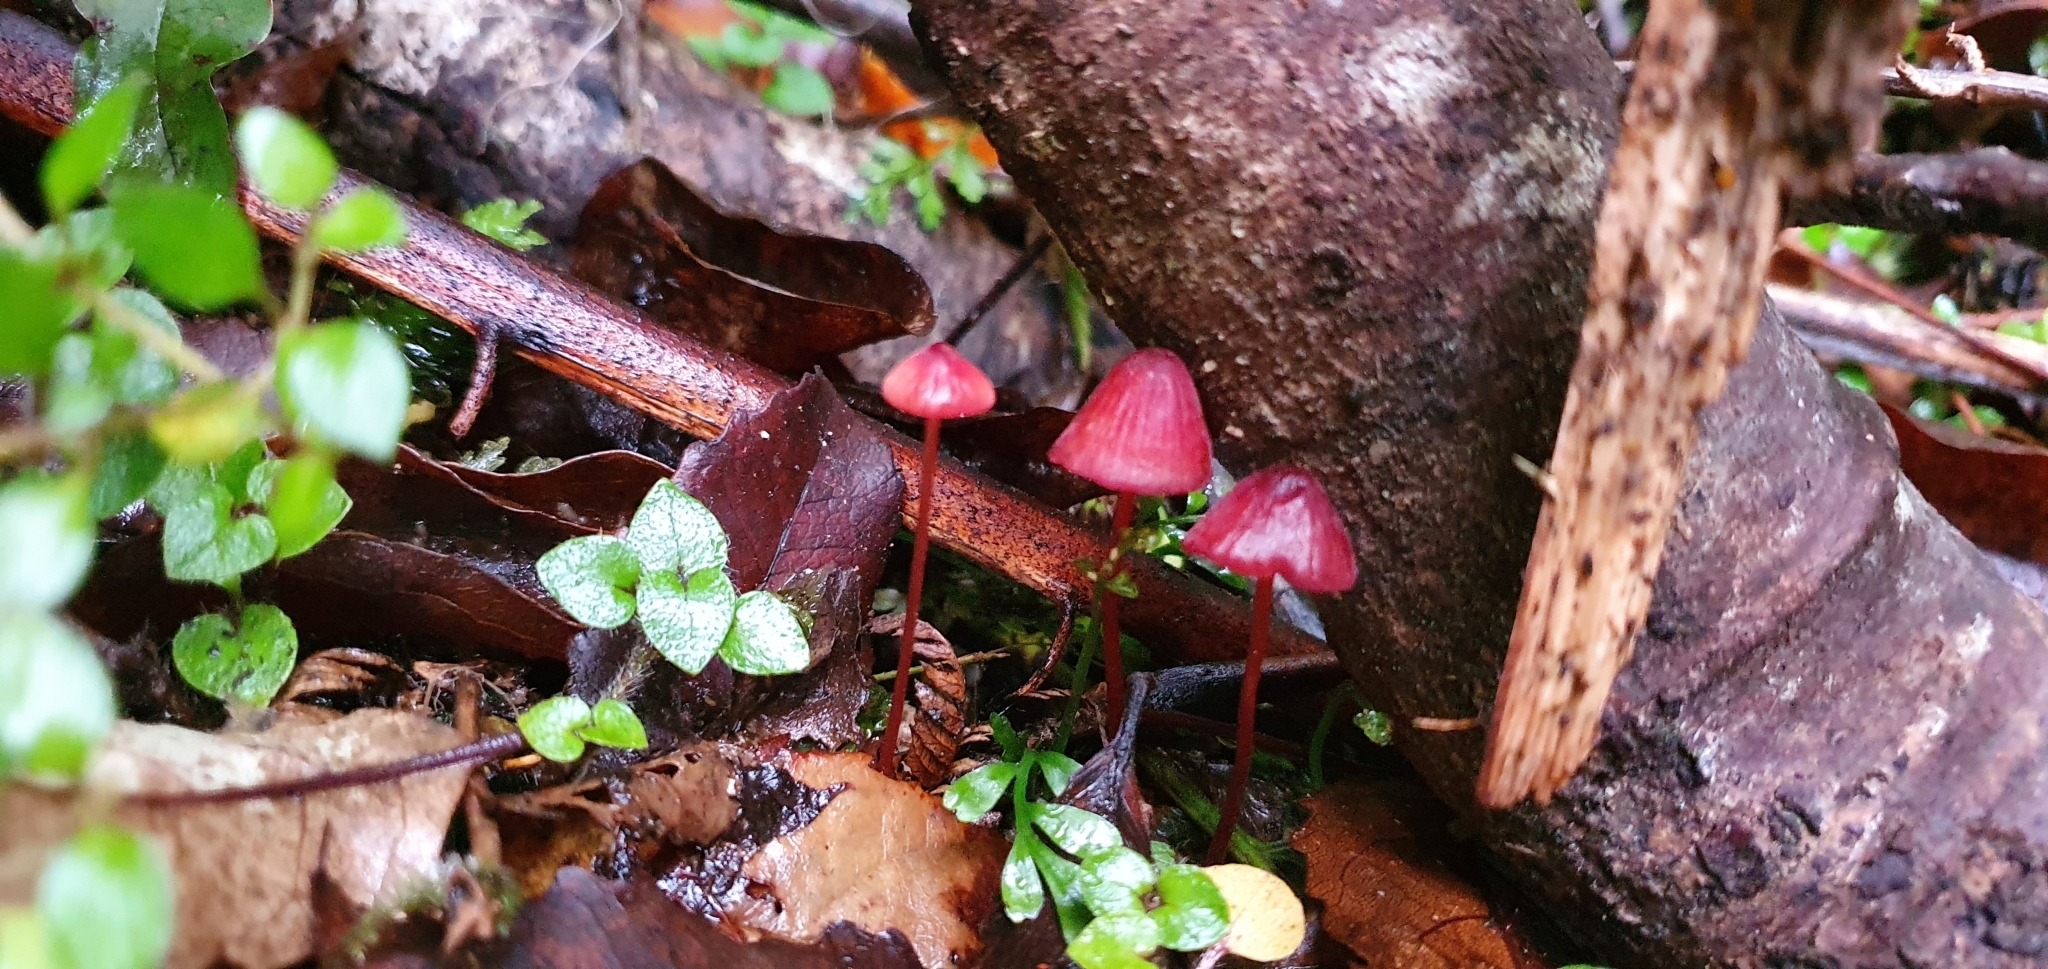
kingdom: Fungi
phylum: Basidiomycota
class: Agaricomycetes
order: Agaricales
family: Mycenaceae
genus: Mycena
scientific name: Mycena ura
